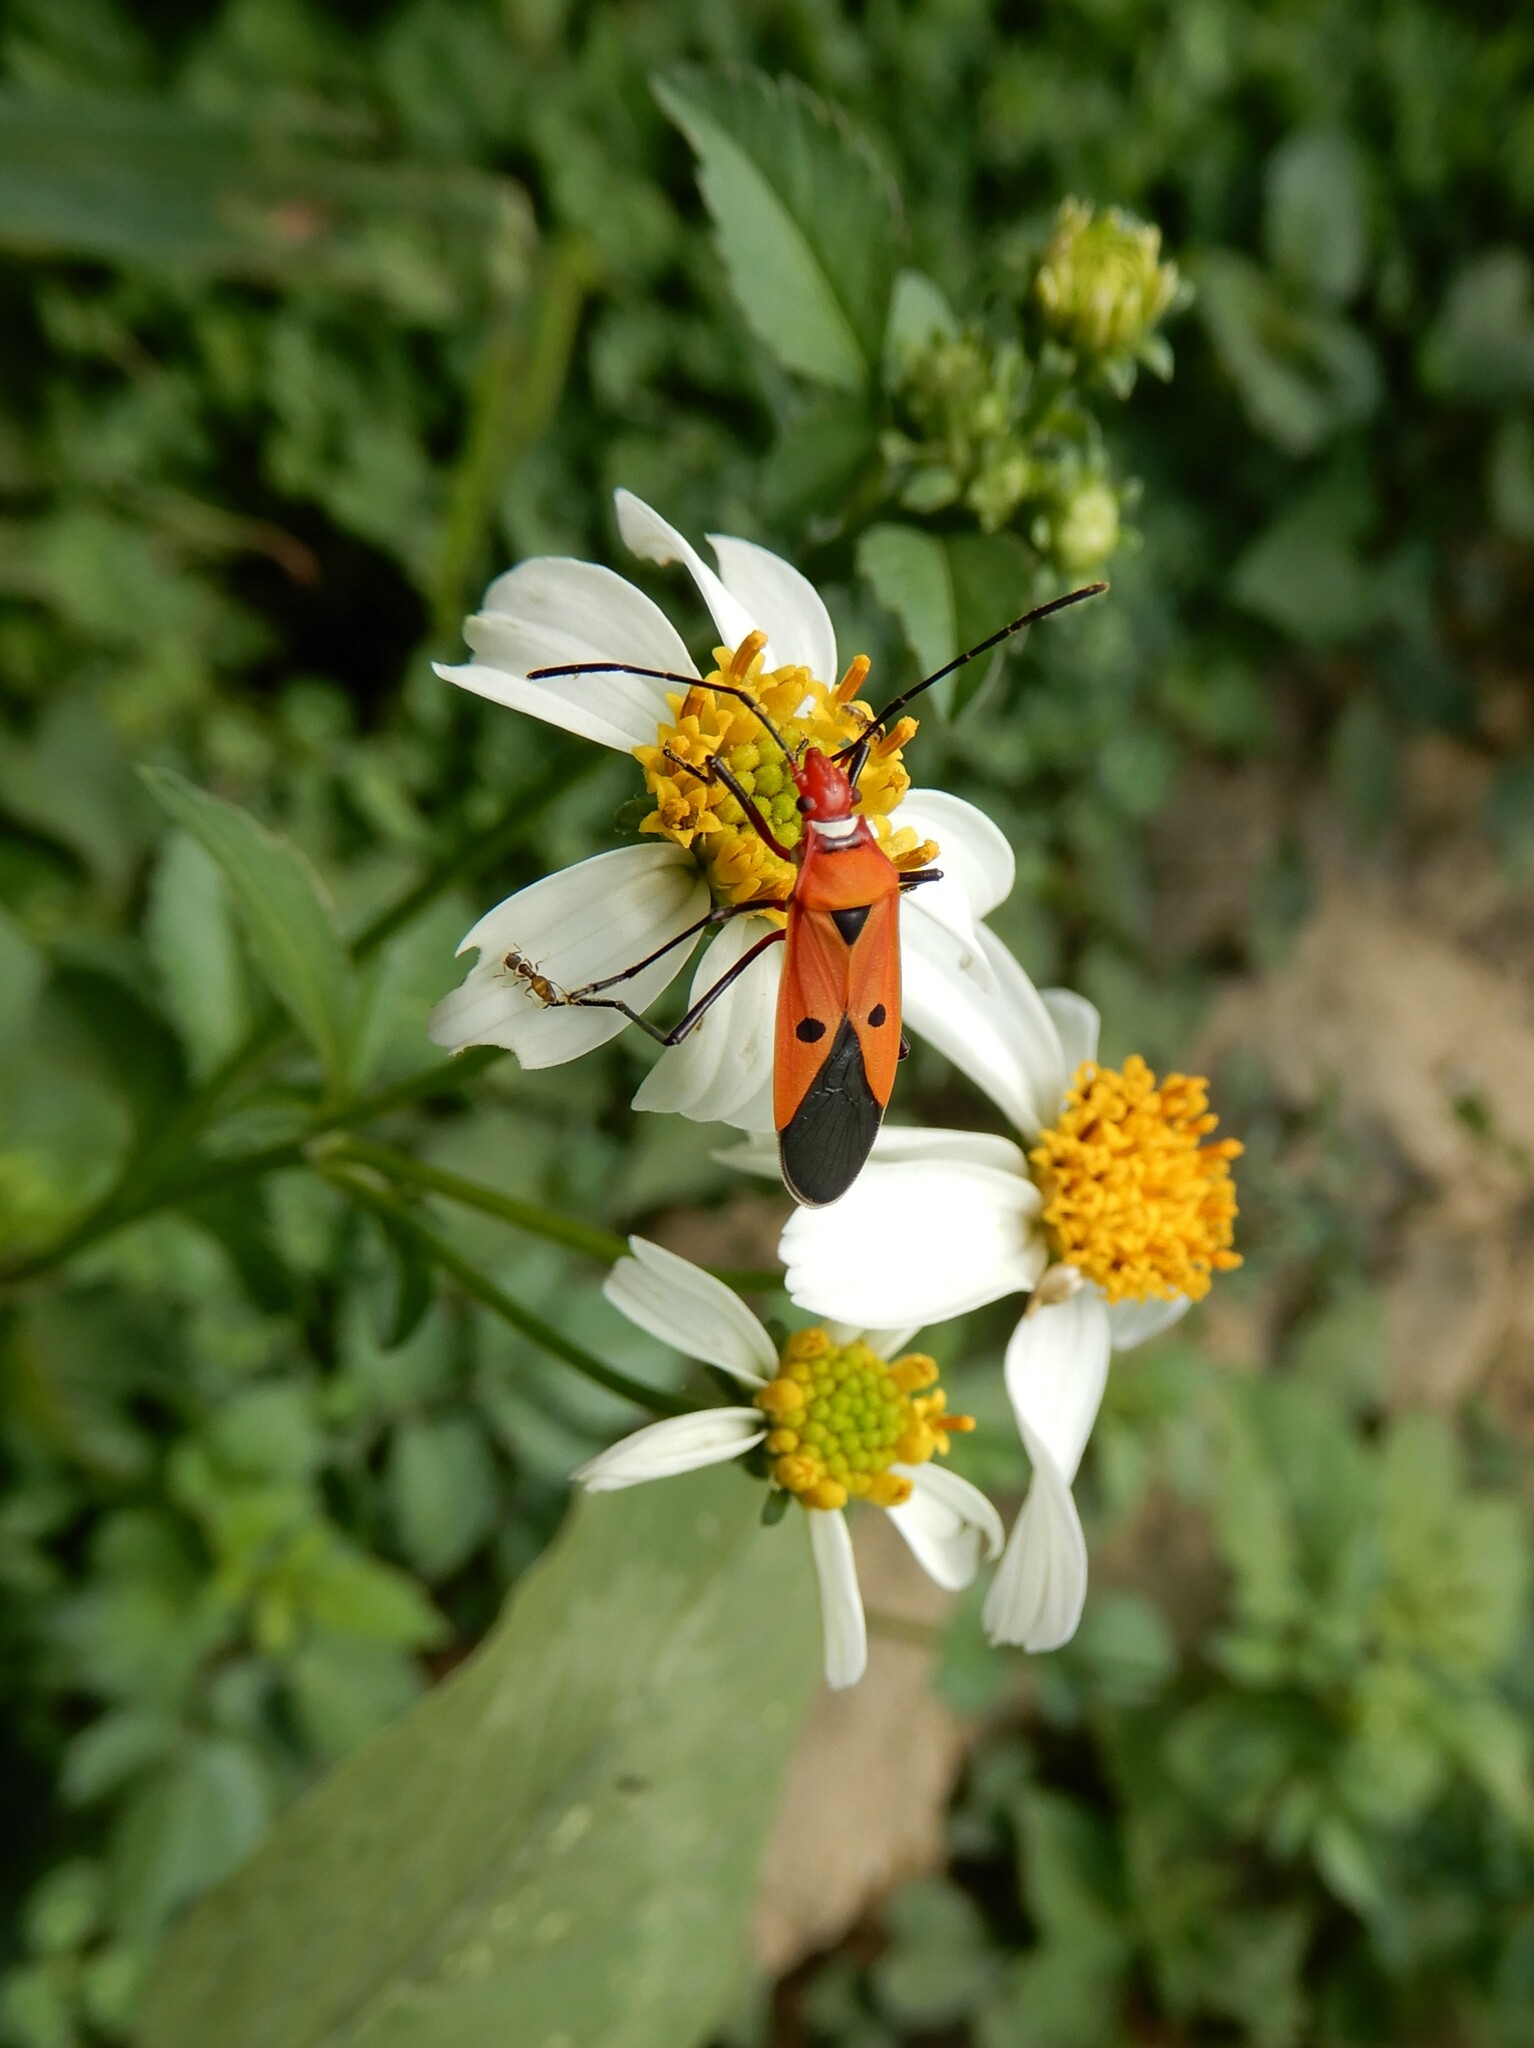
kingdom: Plantae
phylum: Tracheophyta
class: Magnoliopsida
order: Asterales
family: Asteraceae
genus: Bidens
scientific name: Bidens alba
